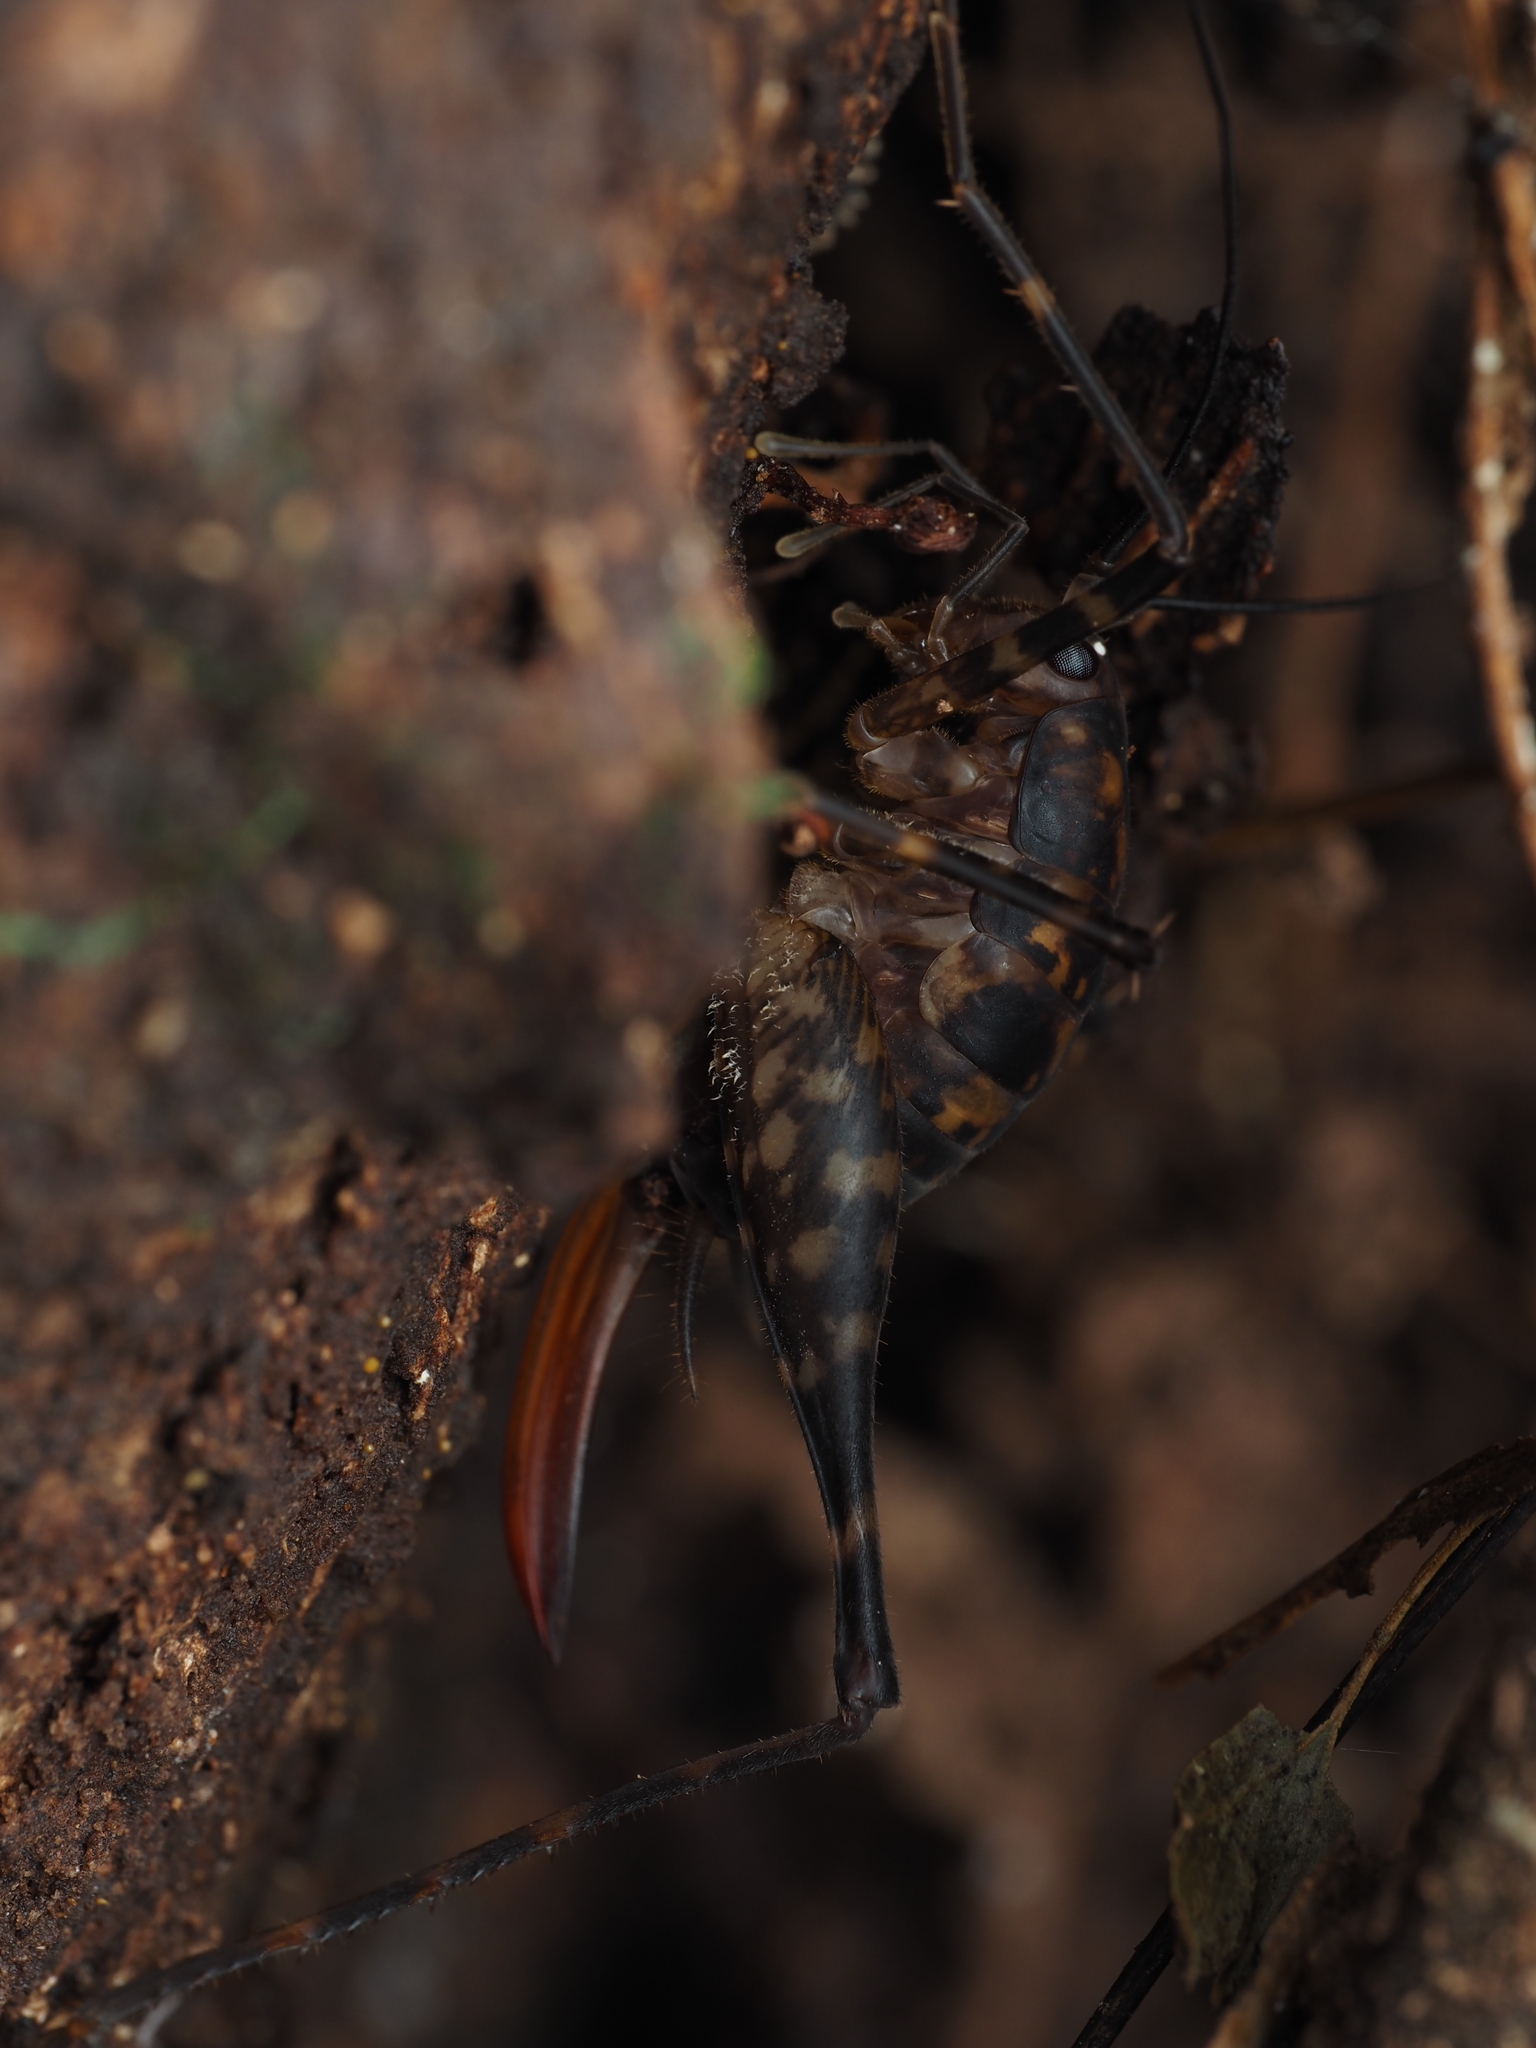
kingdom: Animalia
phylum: Arthropoda
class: Insecta
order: Orthoptera
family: Rhaphidophoridae
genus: Miotopus
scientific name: Miotopus richardsae
